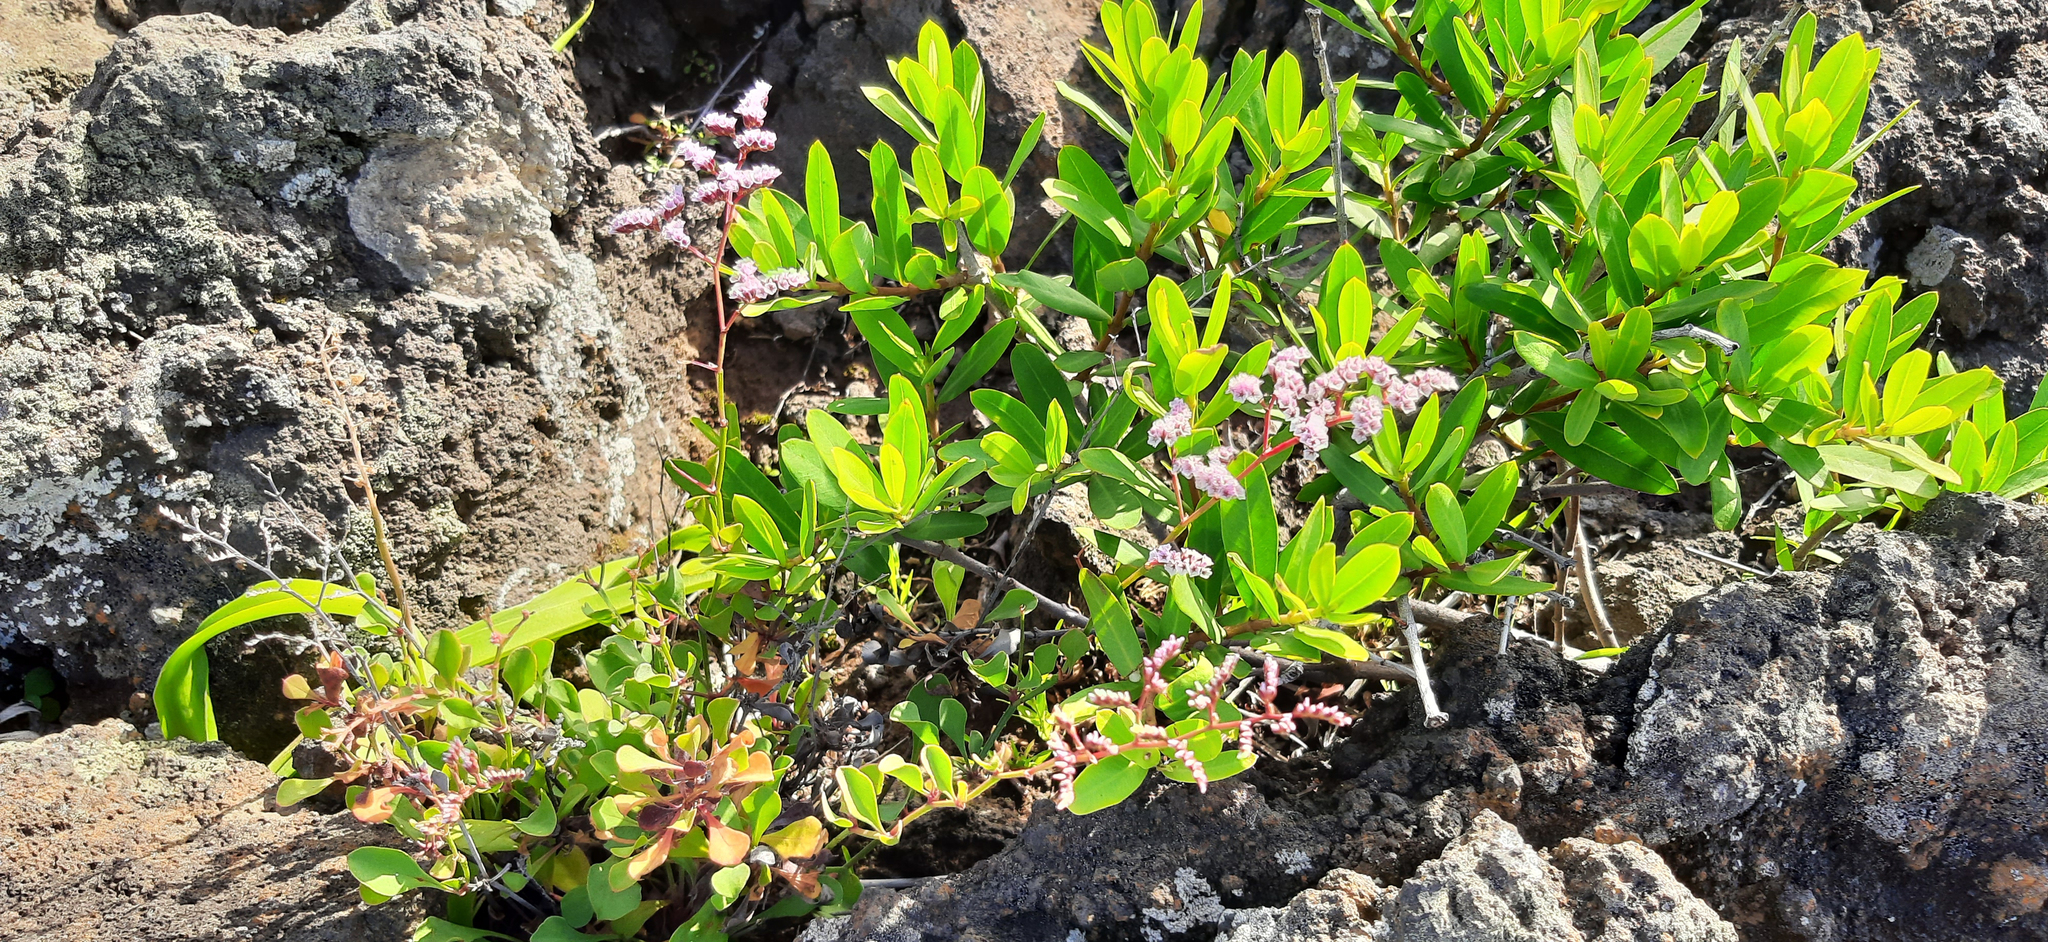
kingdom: Plantae
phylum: Tracheophyta
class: Magnoliopsida
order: Caryophyllales
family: Plumbaginaceae
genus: Limonium
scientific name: Limonium pectinatum
